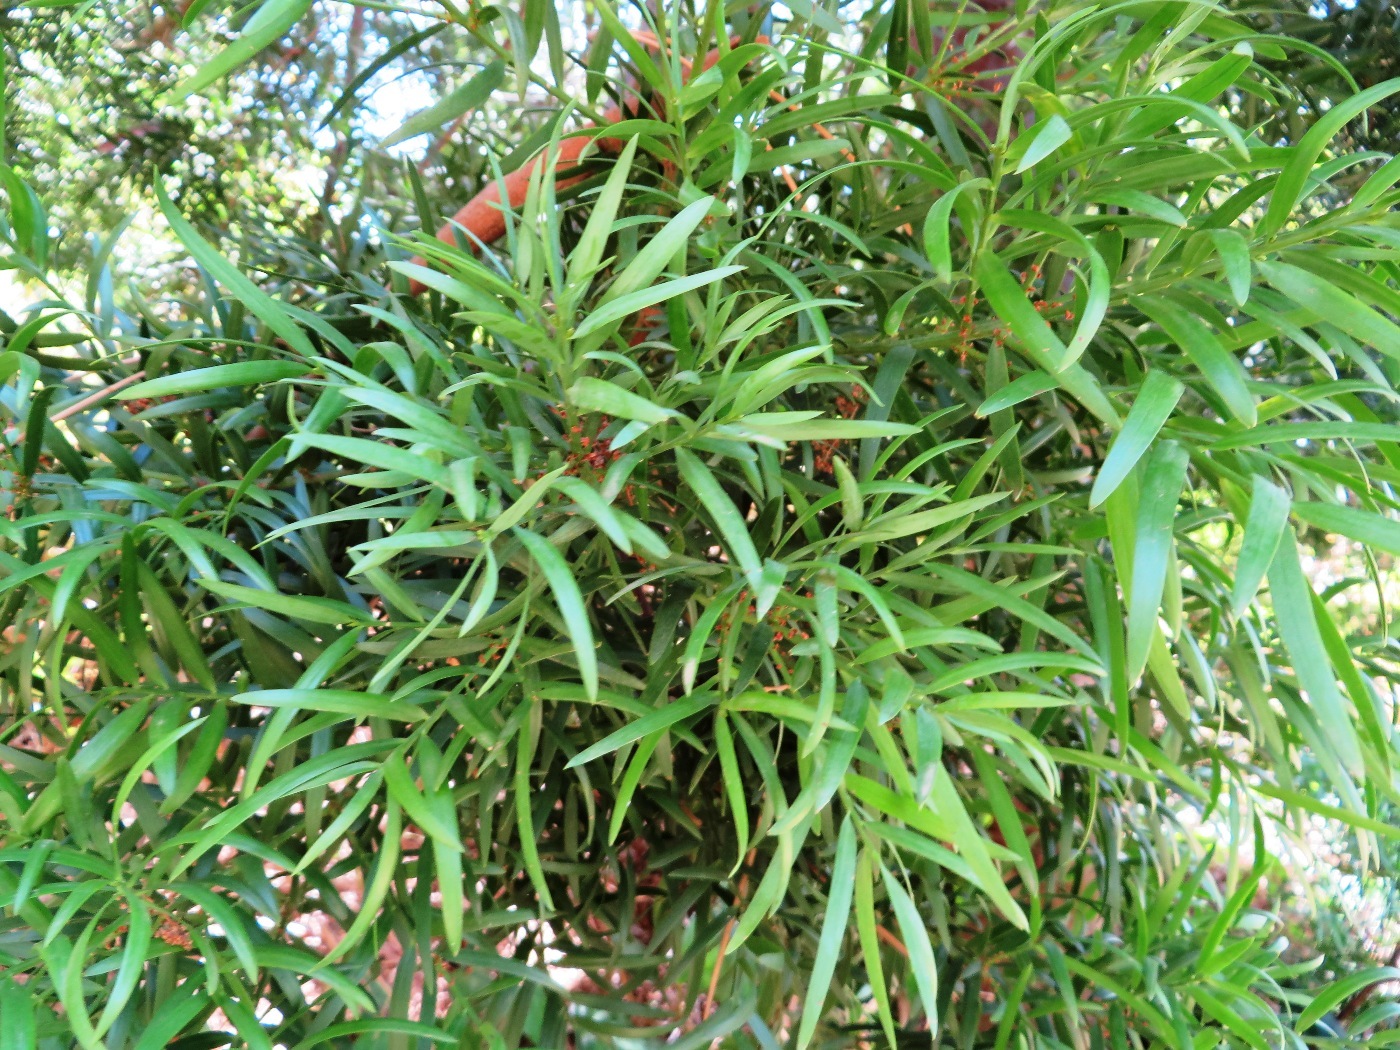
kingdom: Plantae
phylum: Tracheophyta
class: Pinopsida
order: Pinales
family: Podocarpaceae
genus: Afrocarpus
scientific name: Afrocarpus falcatus
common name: Bastard yellowwood
